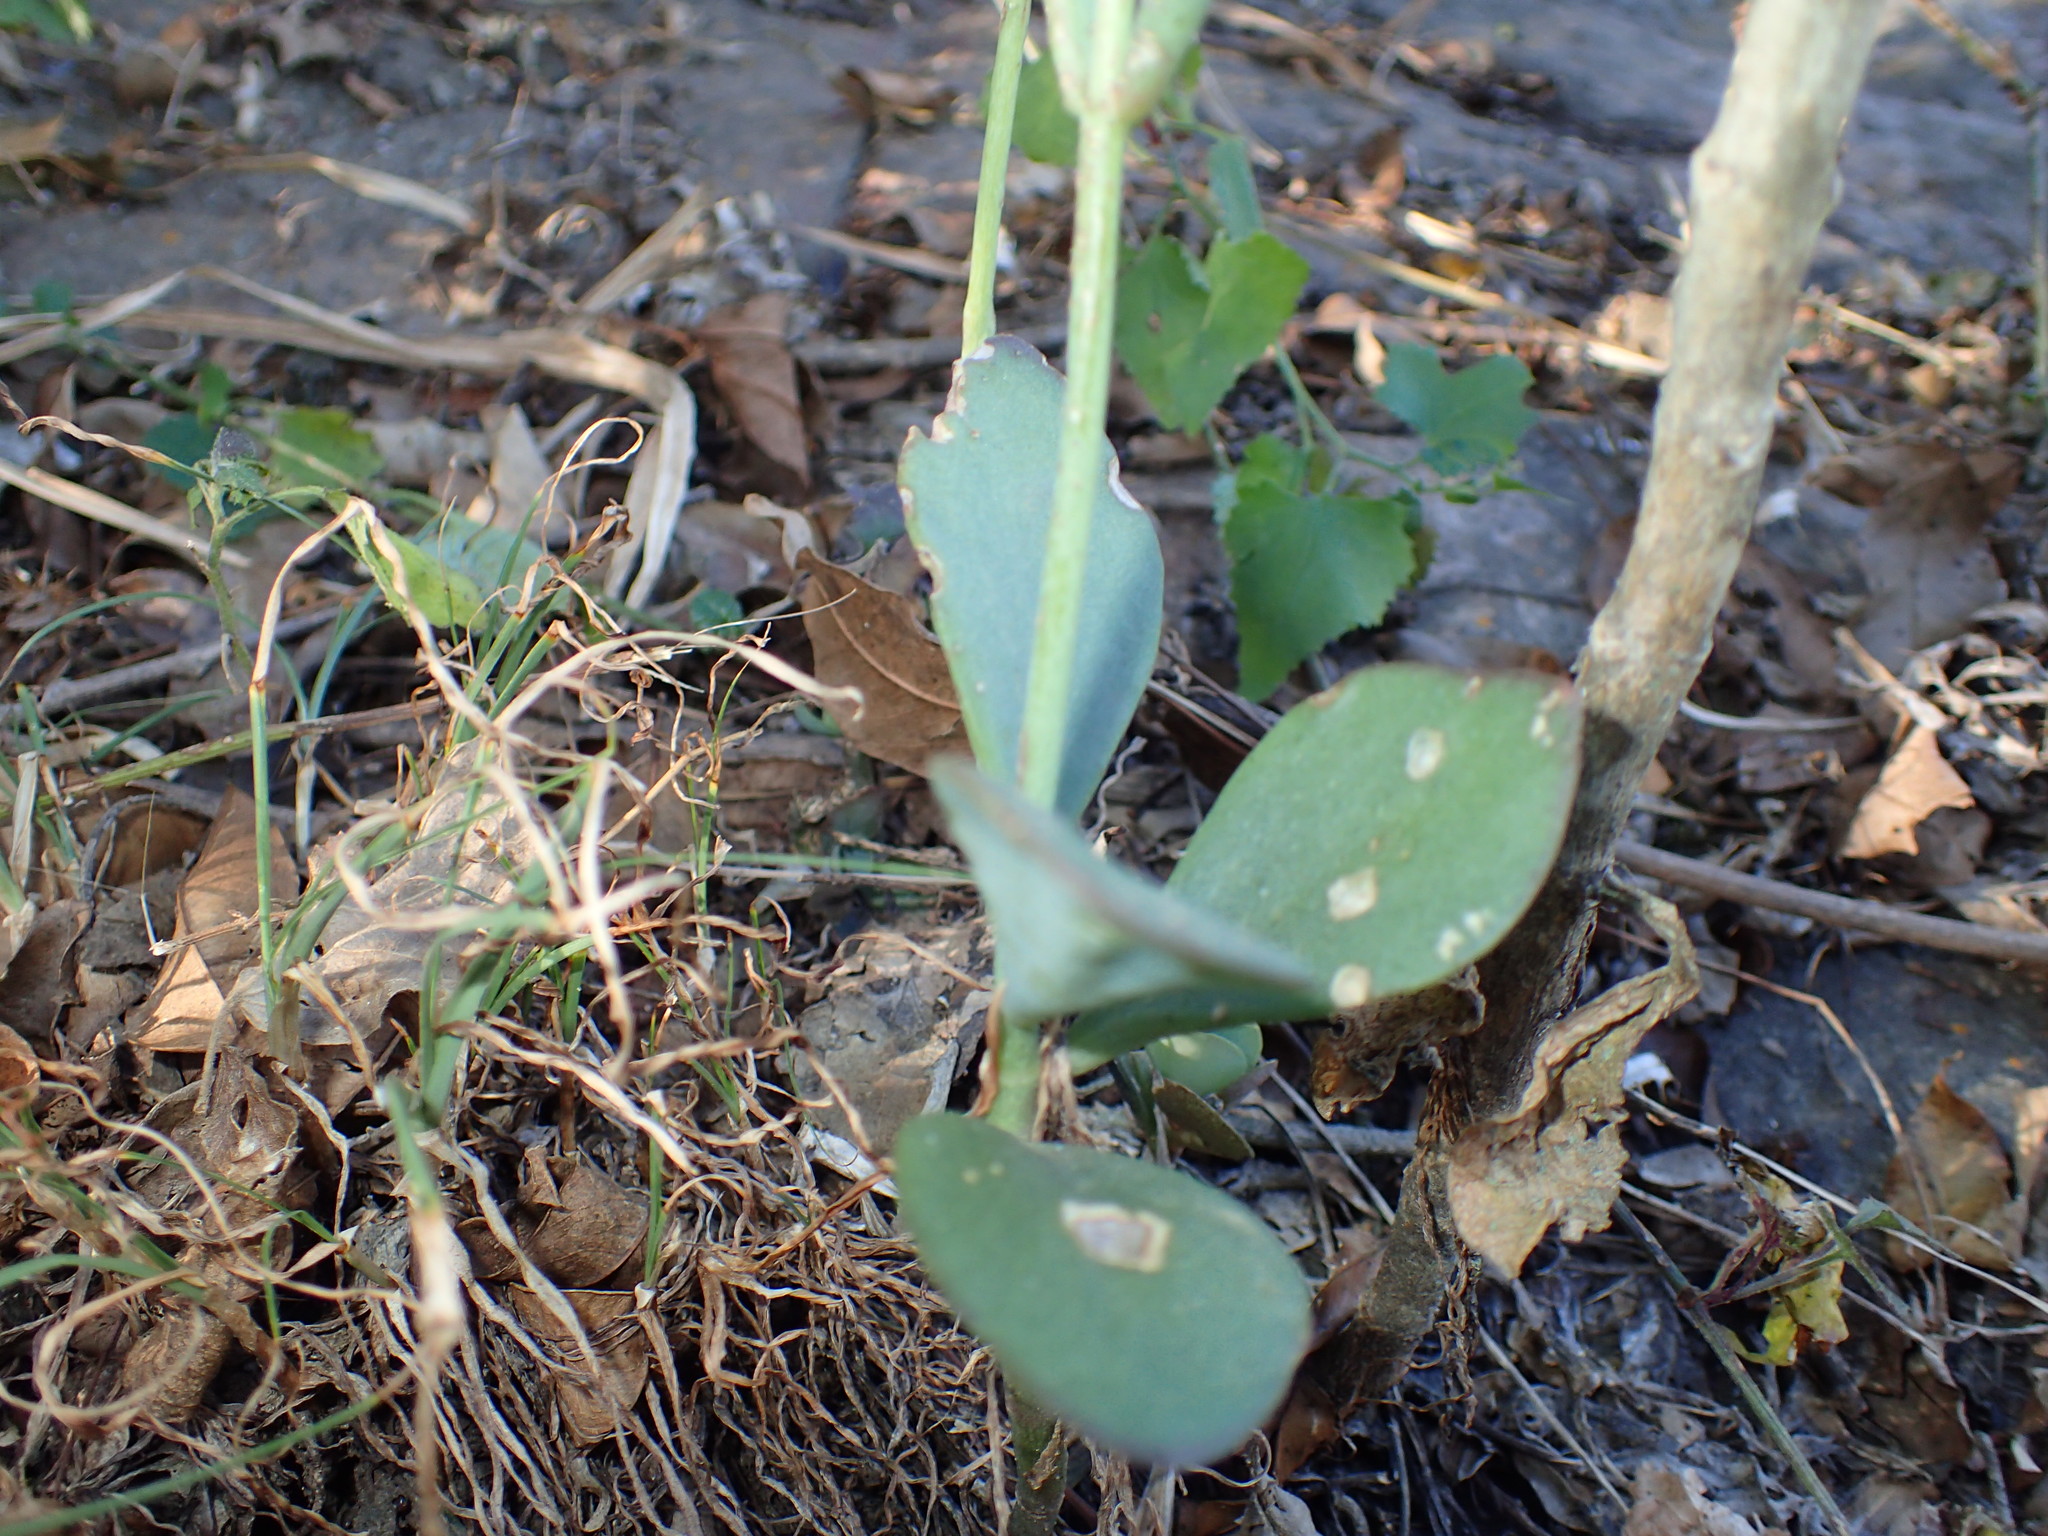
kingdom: Plantae
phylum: Tracheophyta
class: Magnoliopsida
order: Saxifragales
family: Crassulaceae
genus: Kalanchoe
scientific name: Kalanchoe rotundifolia
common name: Common kalanchoe
